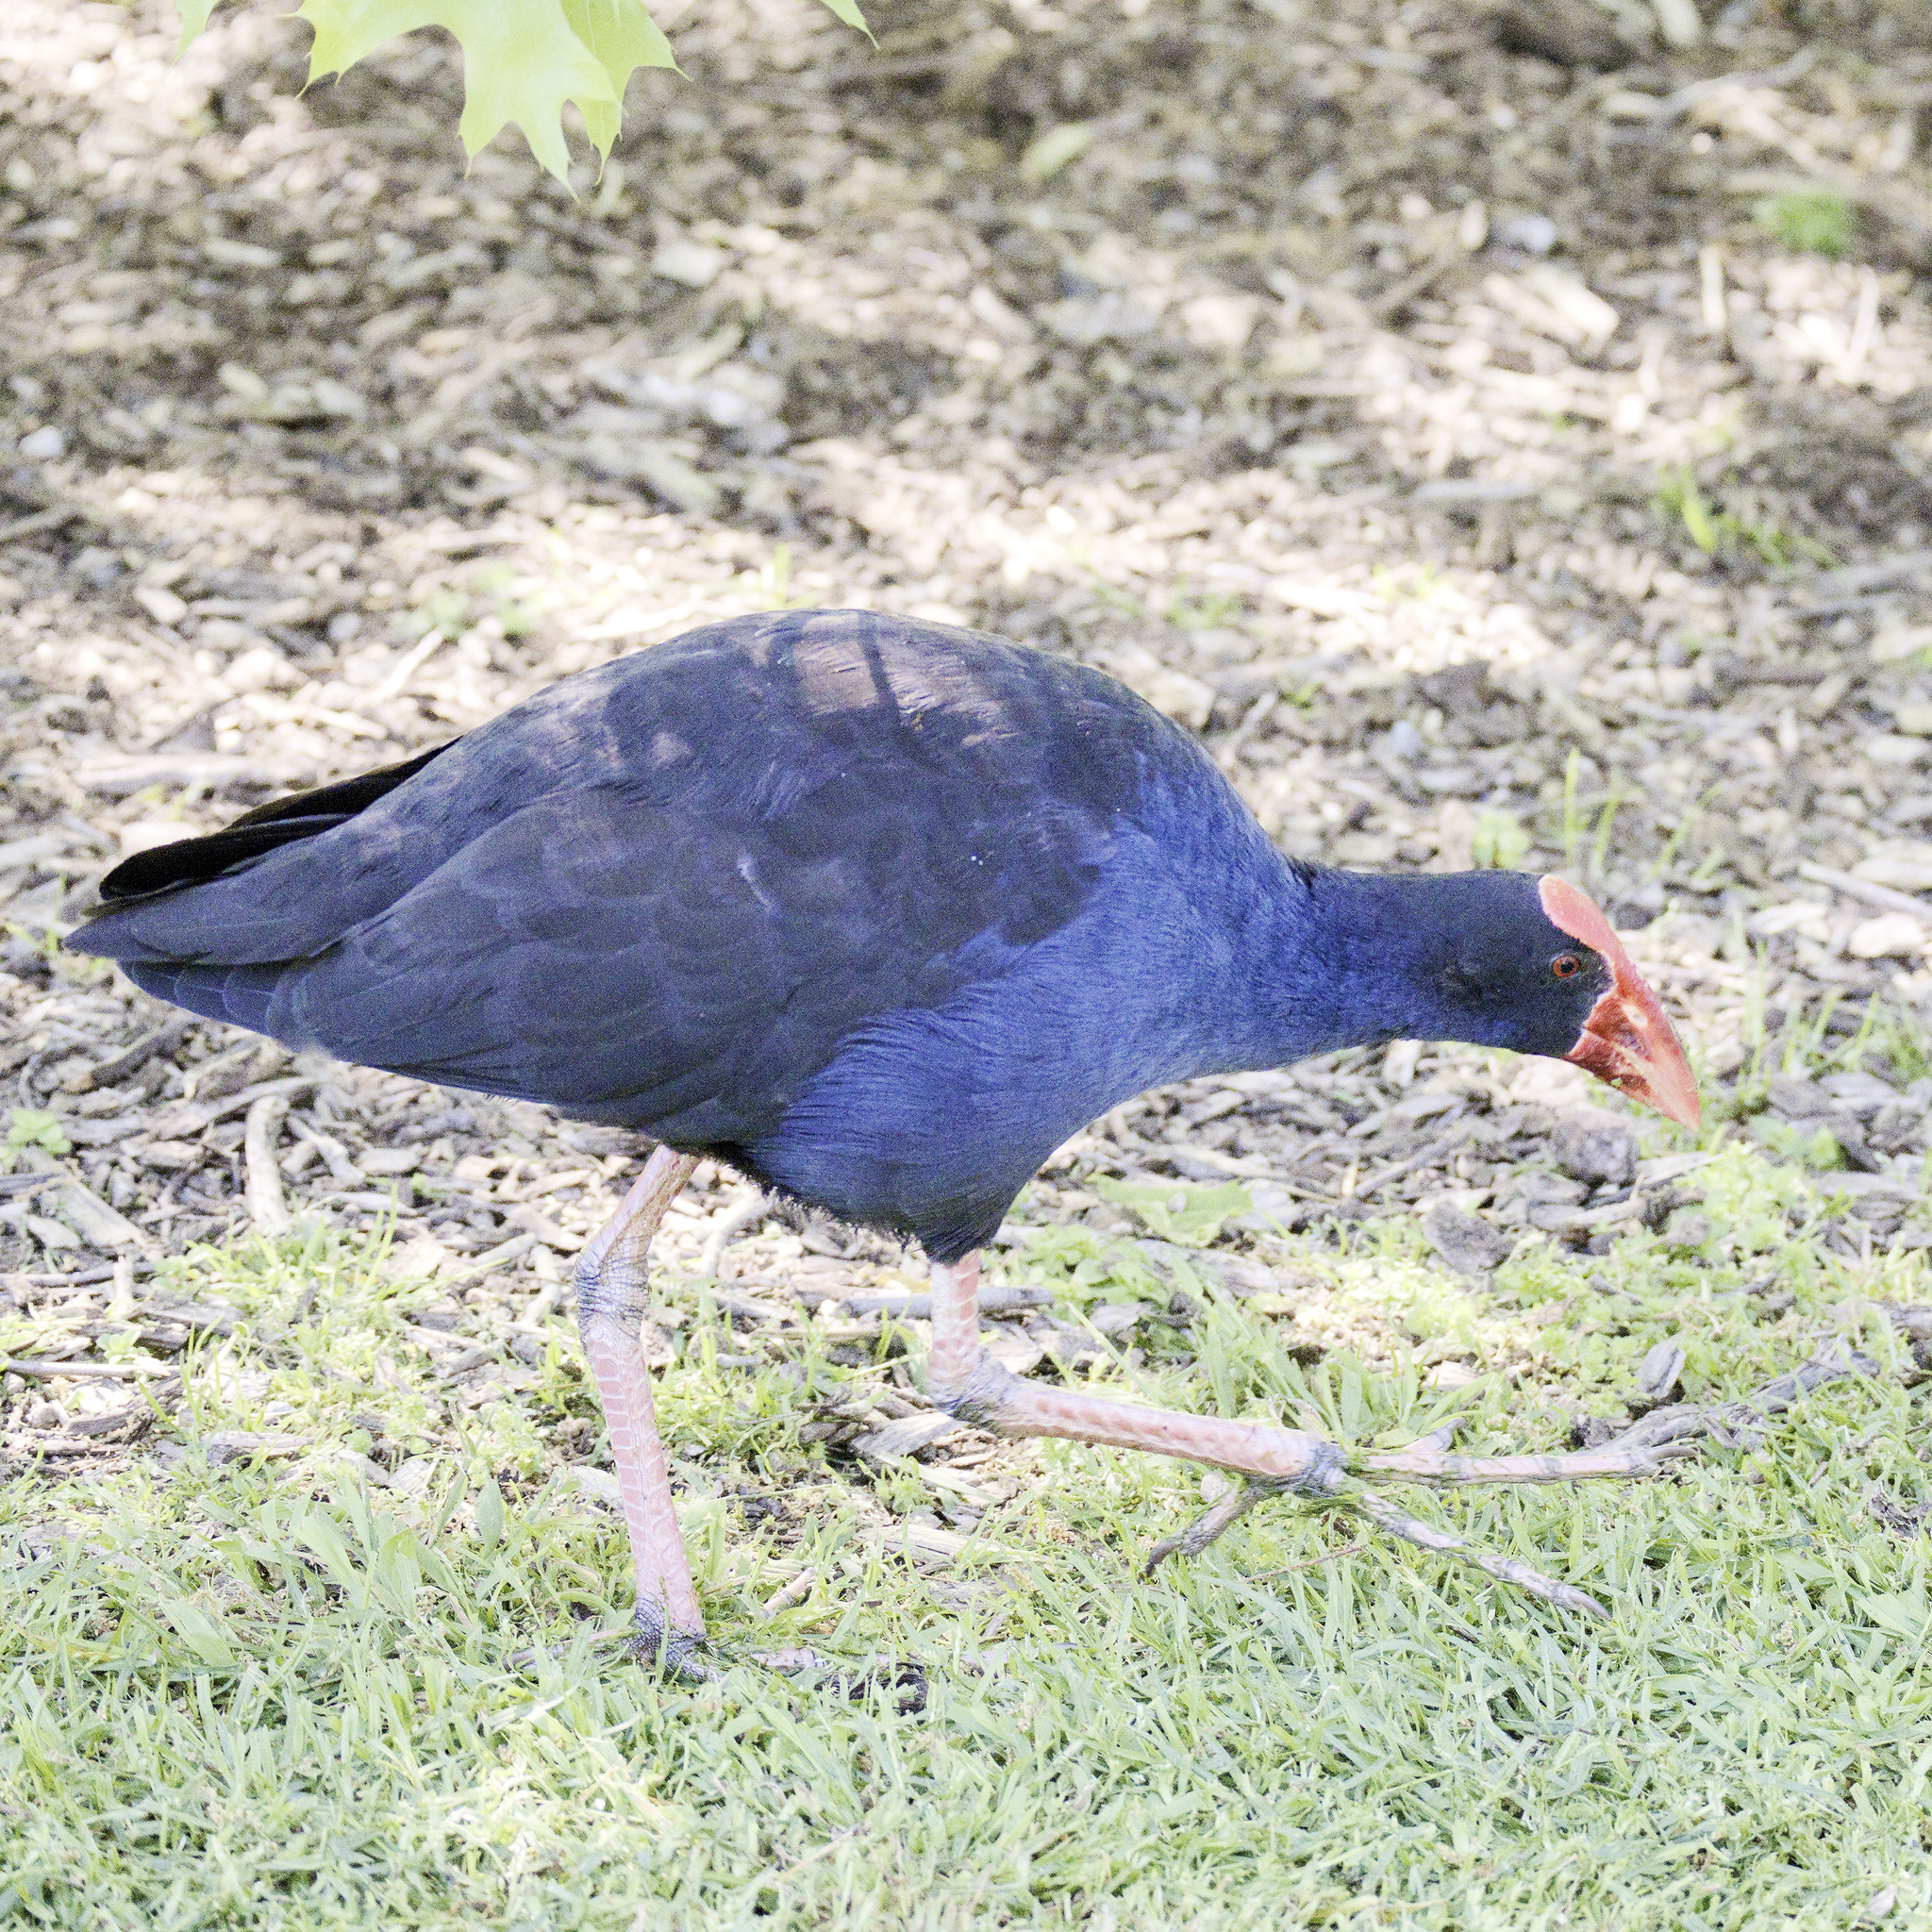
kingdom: Animalia
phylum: Chordata
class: Aves
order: Gruiformes
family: Rallidae
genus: Porphyrio
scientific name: Porphyrio melanotus
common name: Australasian swamphen
